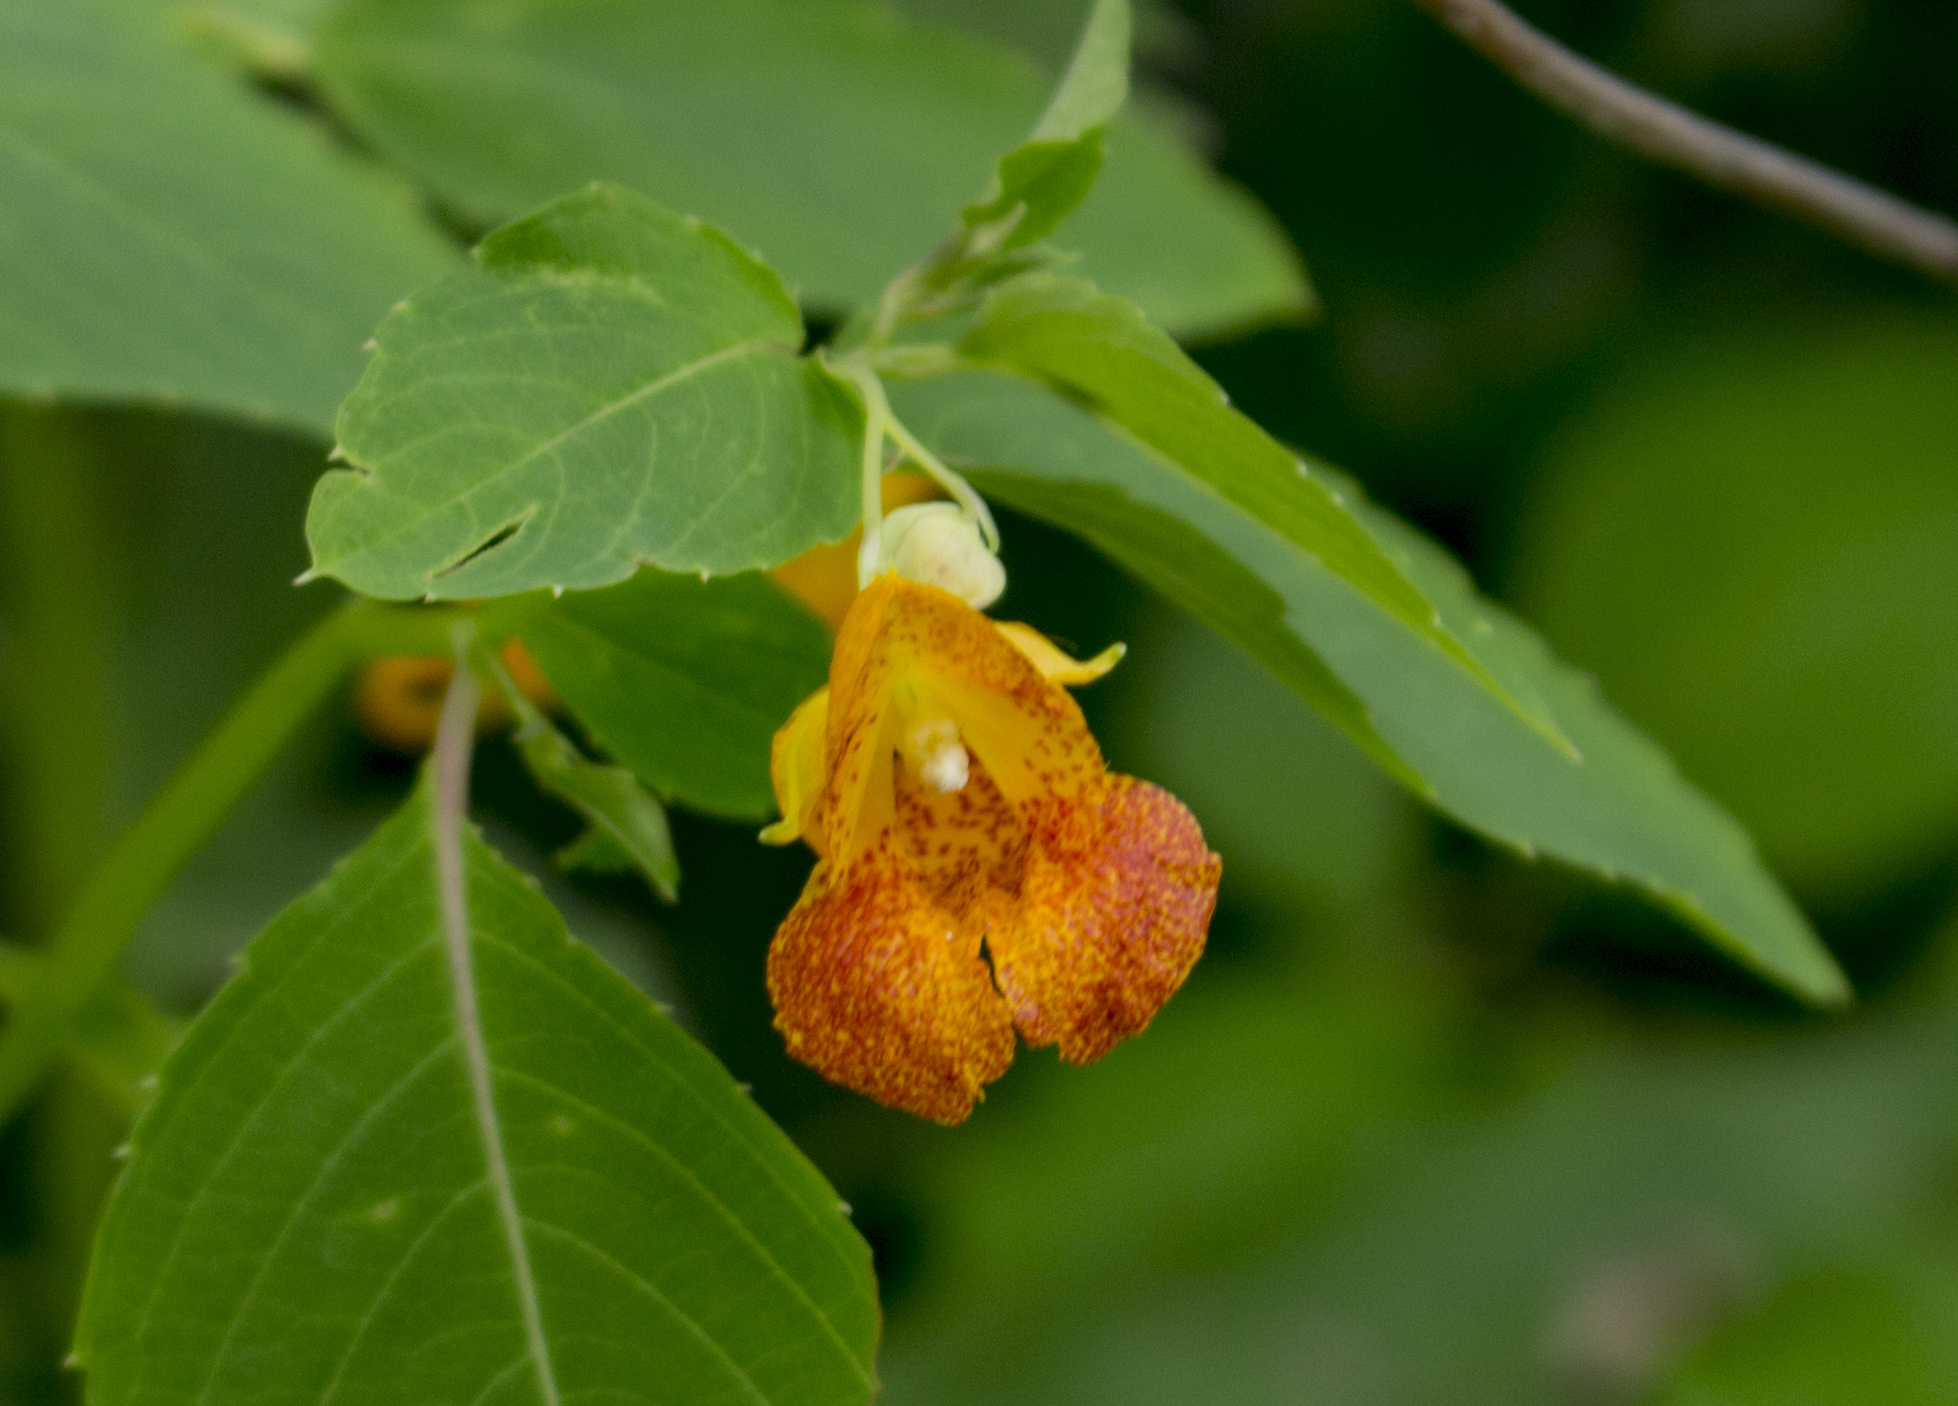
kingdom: Plantae
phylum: Tracheophyta
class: Magnoliopsida
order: Ericales
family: Balsaminaceae
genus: Impatiens
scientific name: Impatiens capensis
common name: Orange balsam
